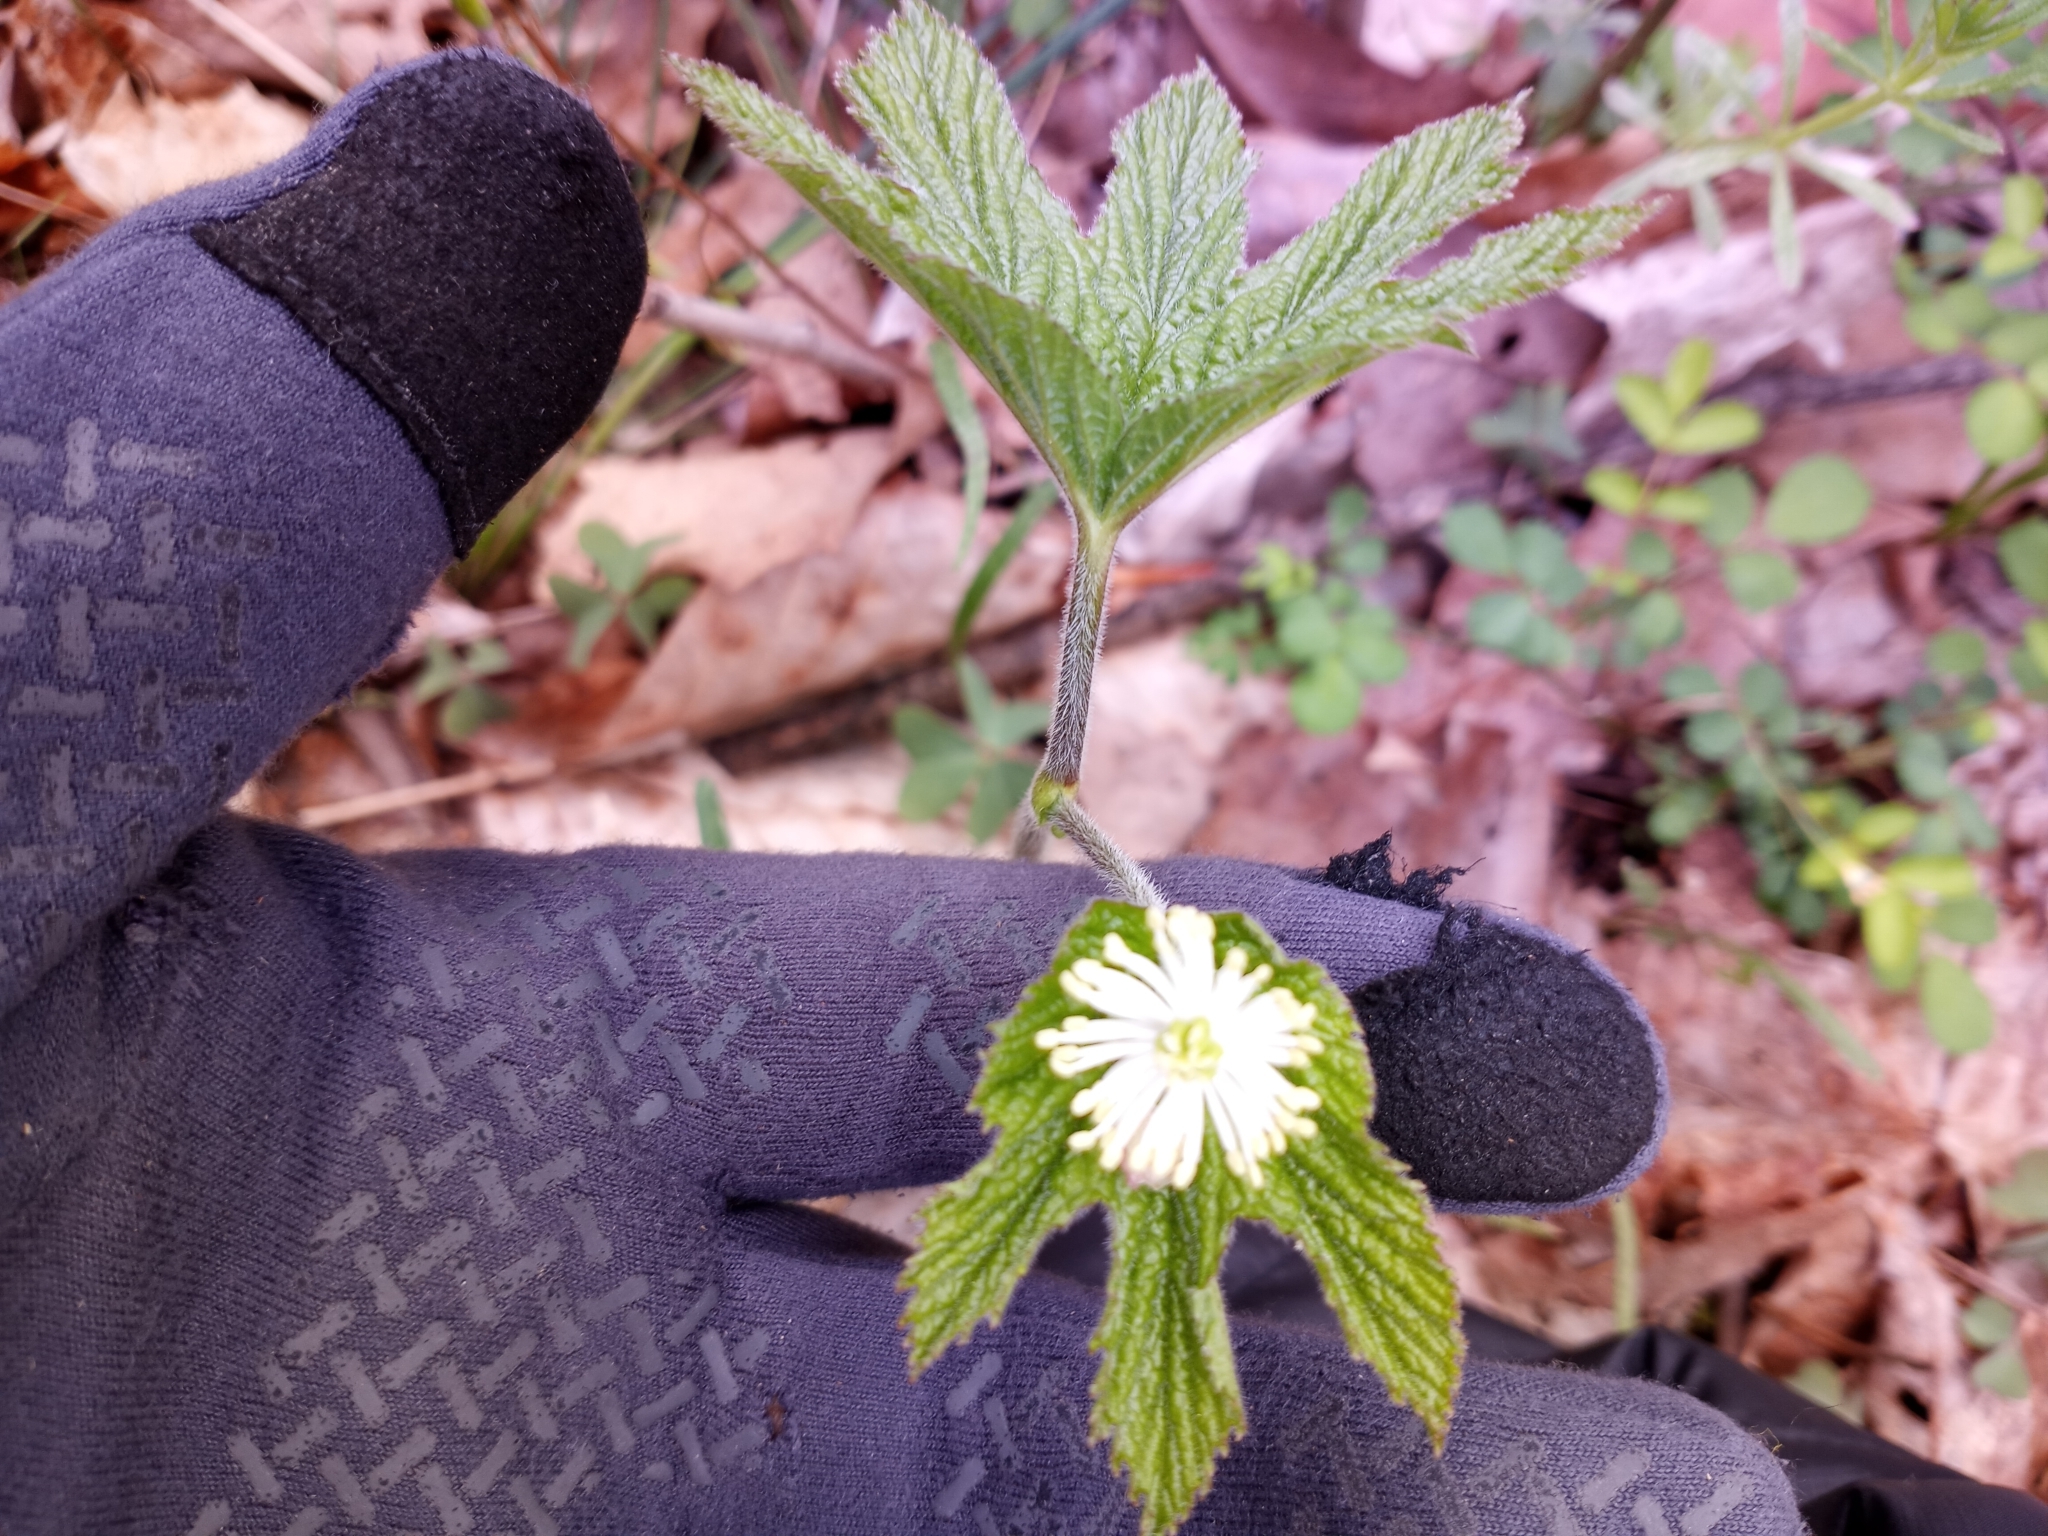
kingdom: Plantae
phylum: Tracheophyta
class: Magnoliopsida
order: Ranunculales
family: Ranunculaceae
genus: Hydrastis
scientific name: Hydrastis canadensis
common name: Goldenseal
